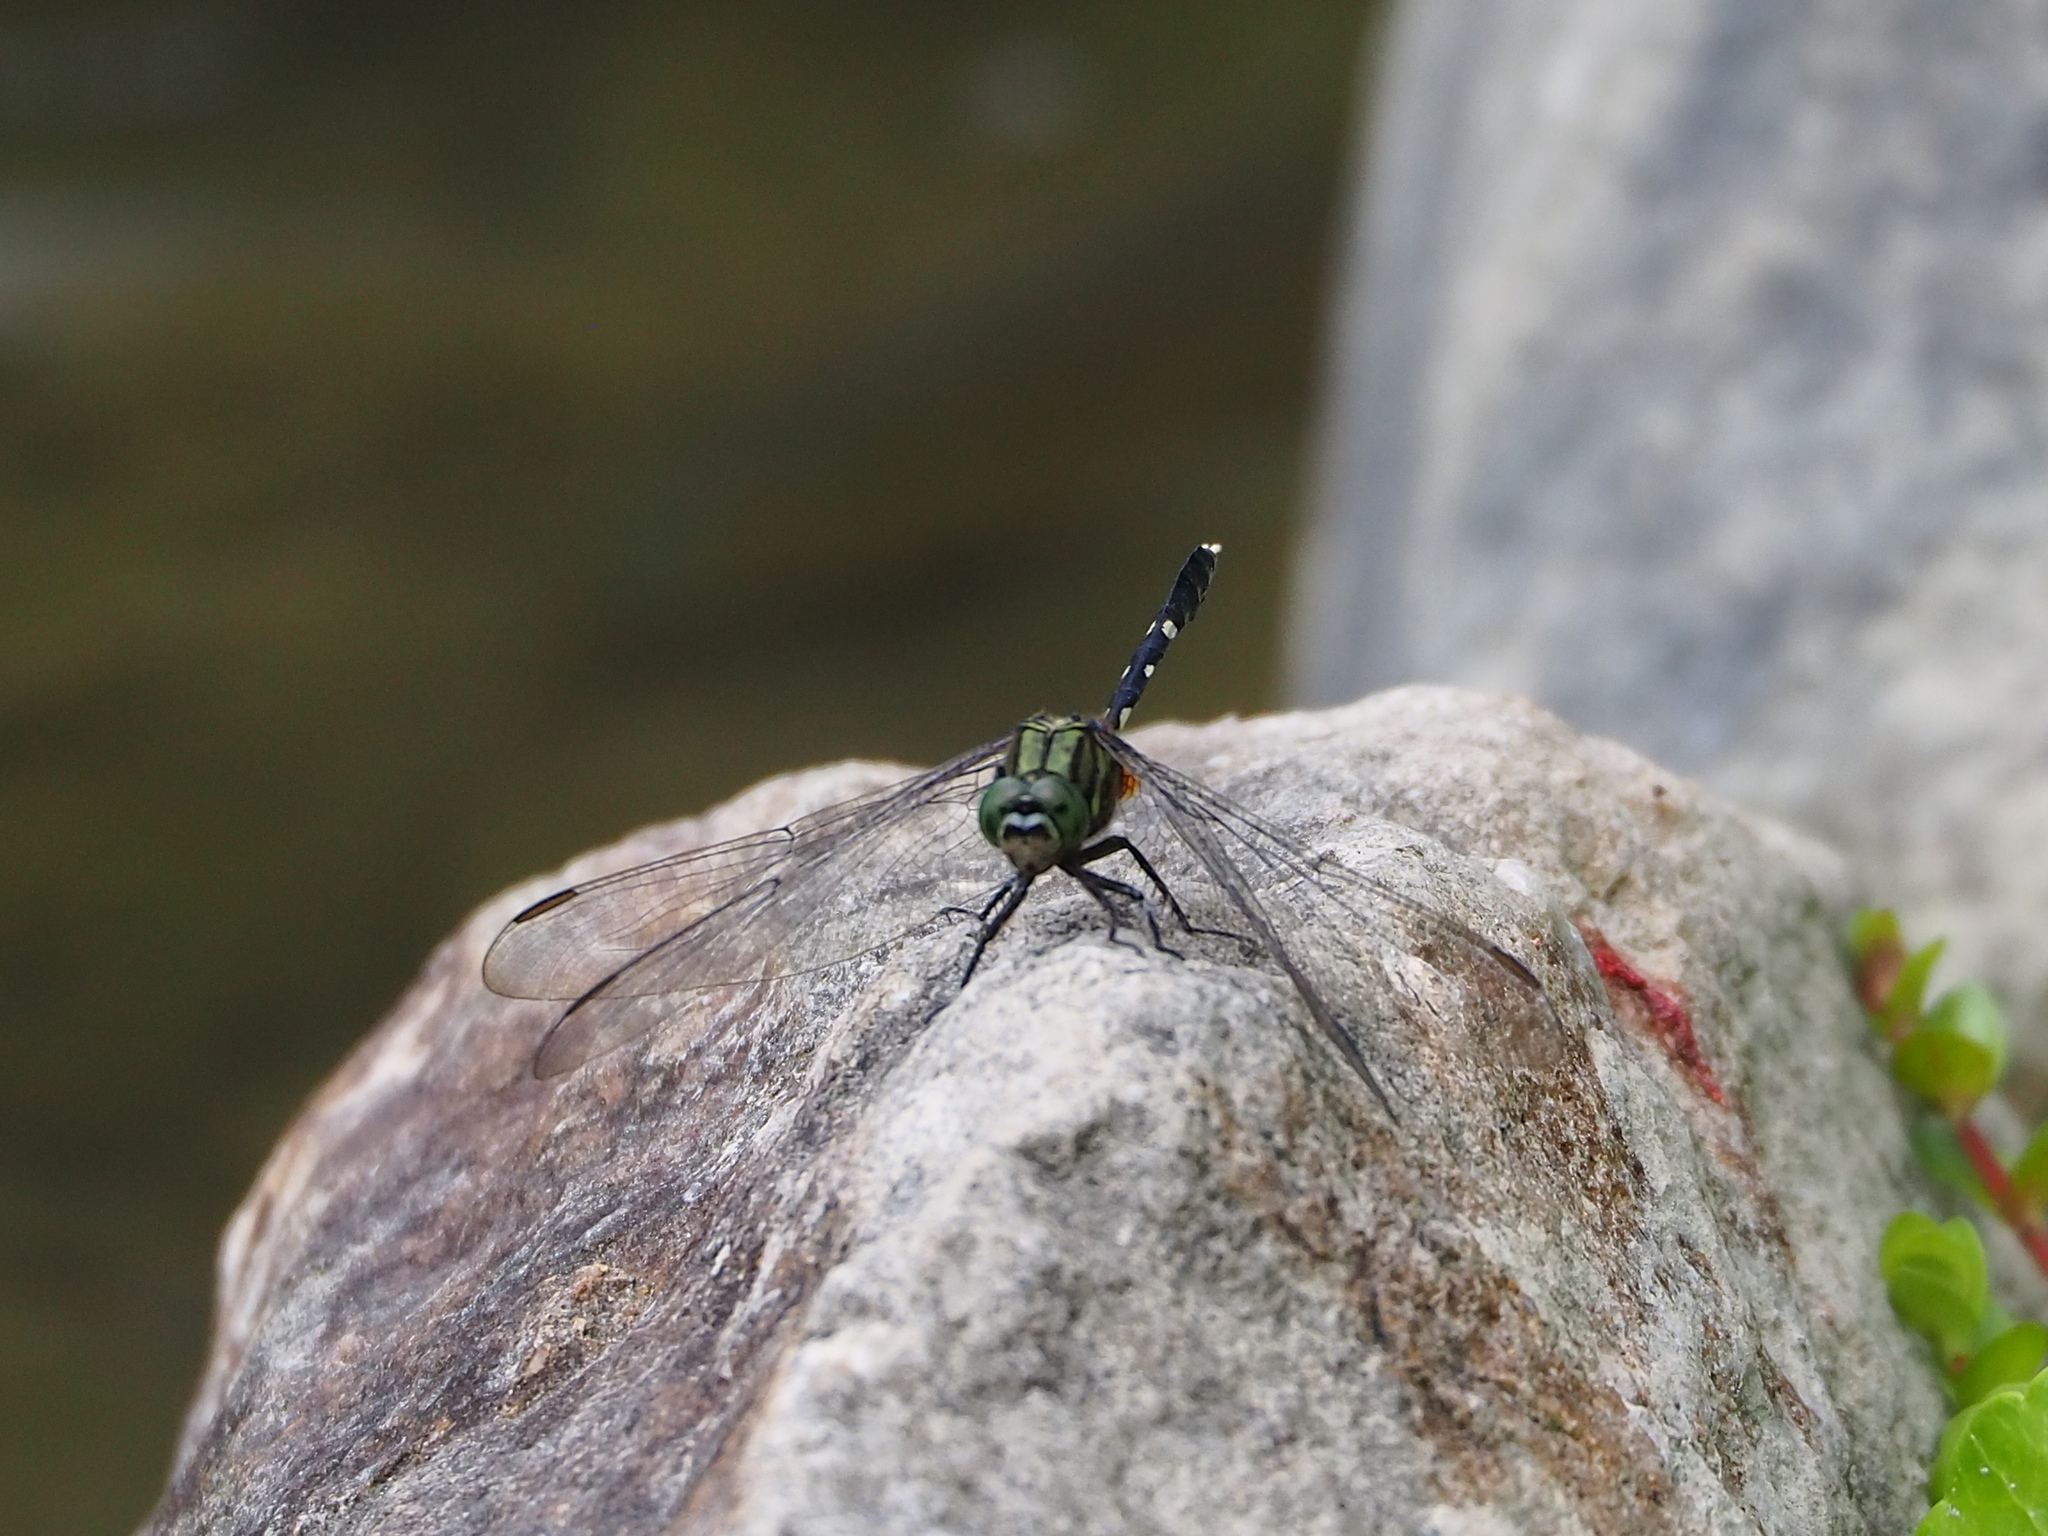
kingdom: Animalia
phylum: Arthropoda
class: Insecta
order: Odonata
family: Libellulidae
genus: Orthetrum
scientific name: Orthetrum sabina
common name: Slender skimmer
